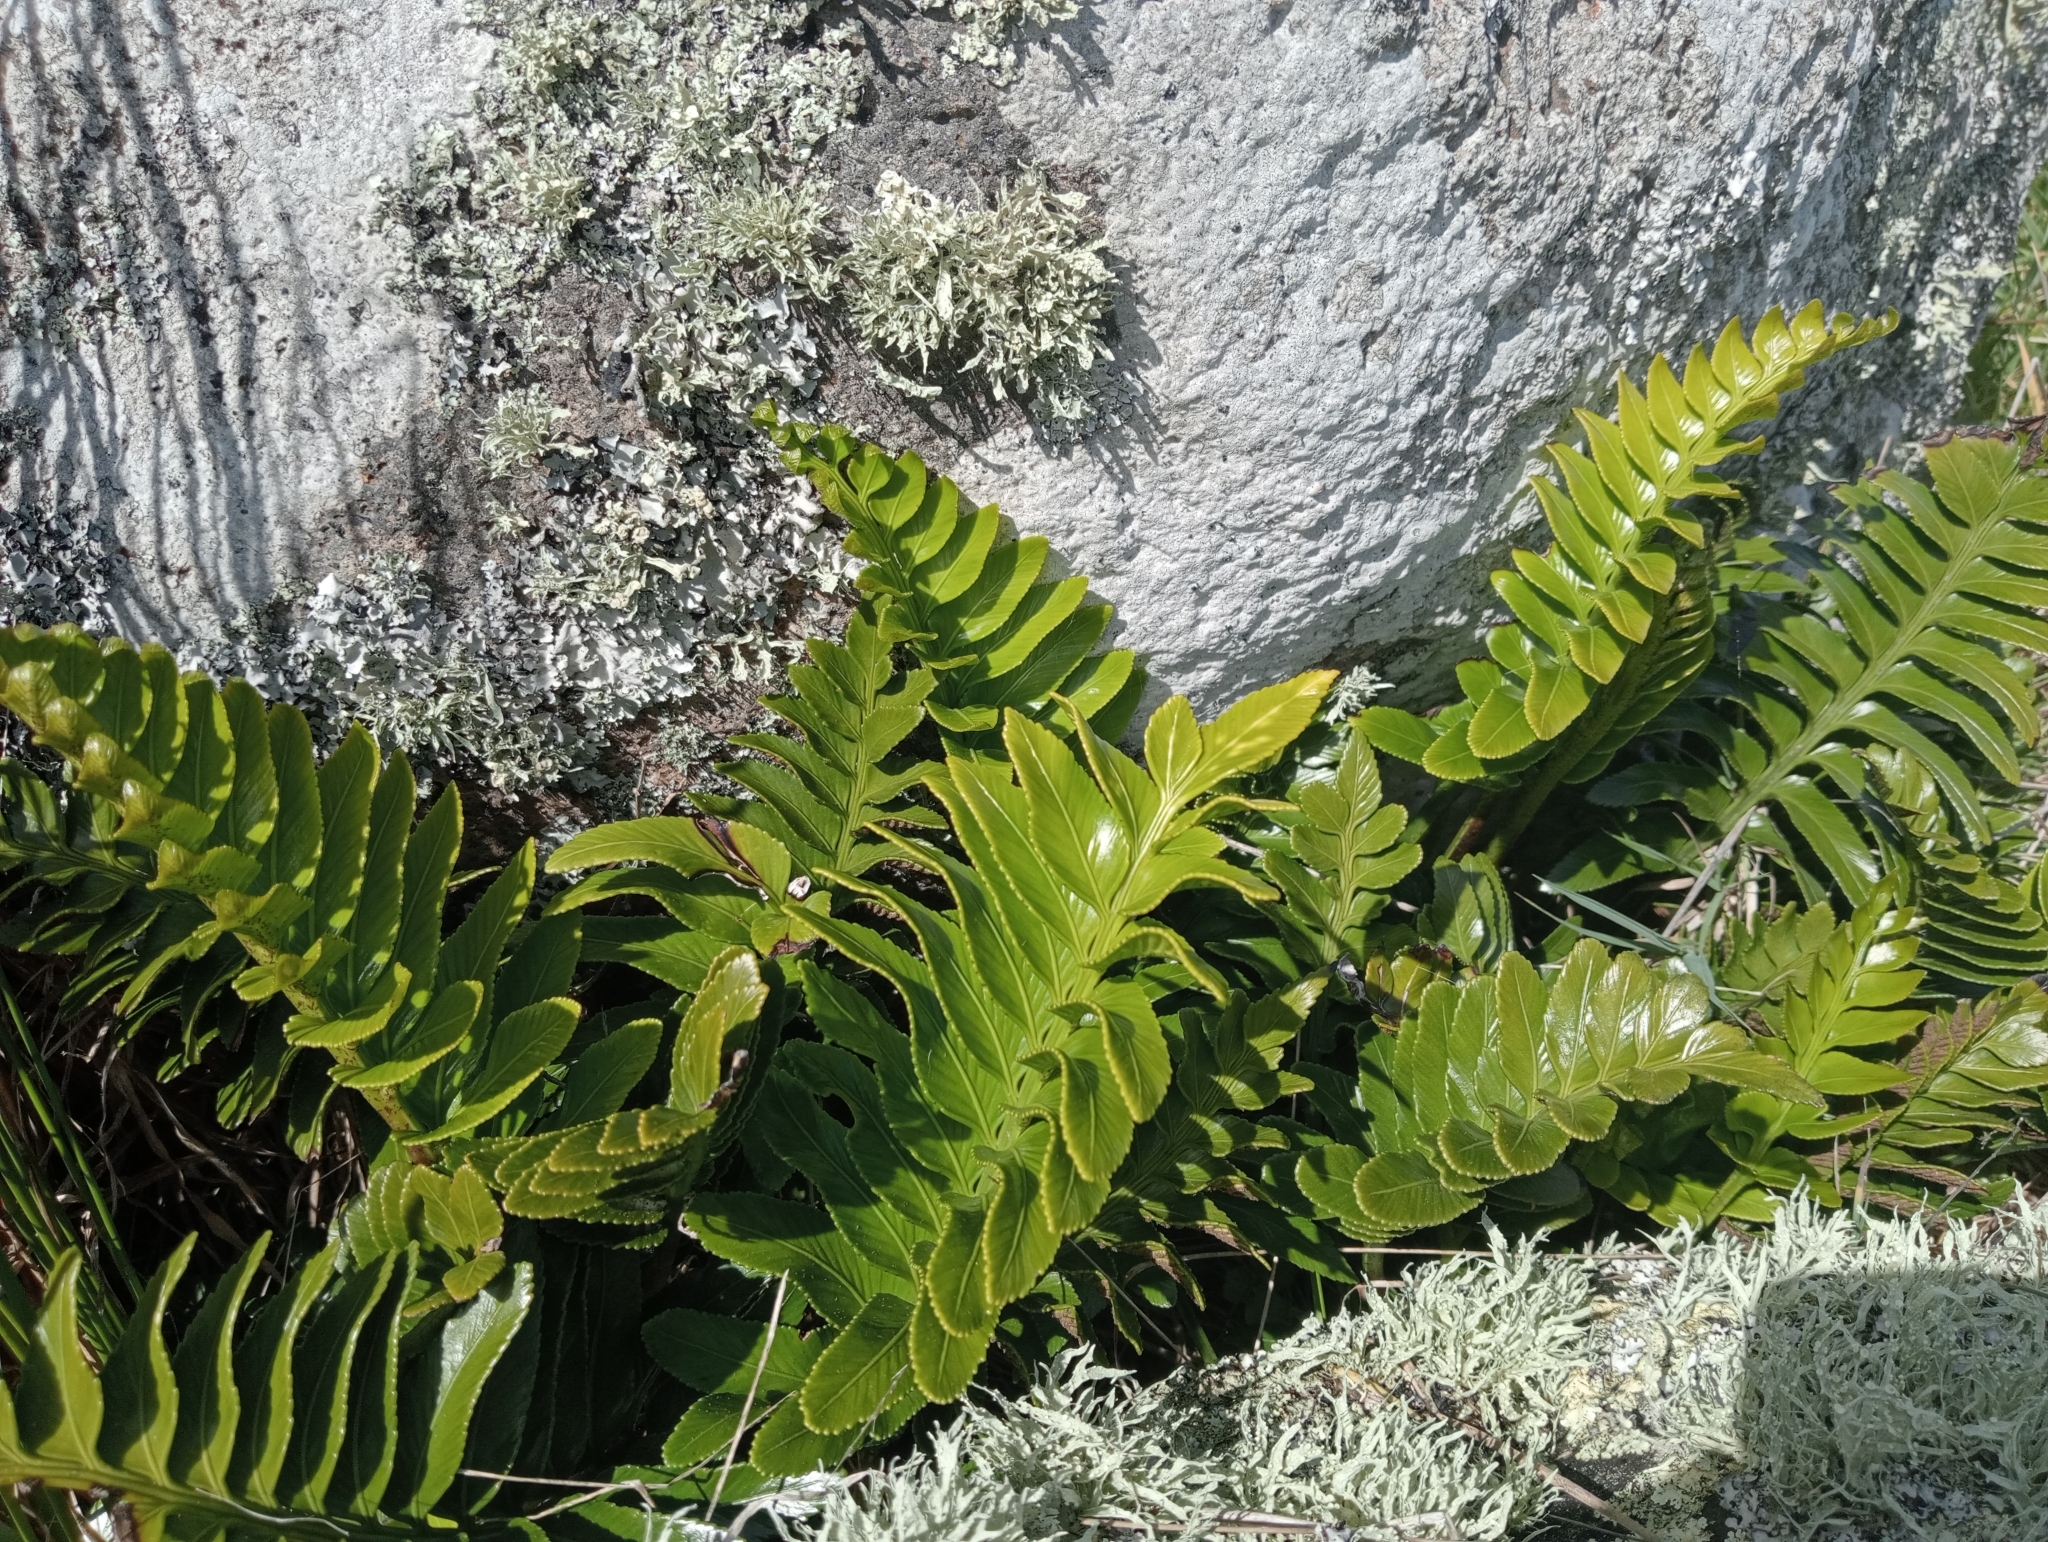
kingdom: Plantae
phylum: Tracheophyta
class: Polypodiopsida
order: Polypodiales
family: Aspleniaceae
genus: Asplenium
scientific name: Asplenium obtusatum
